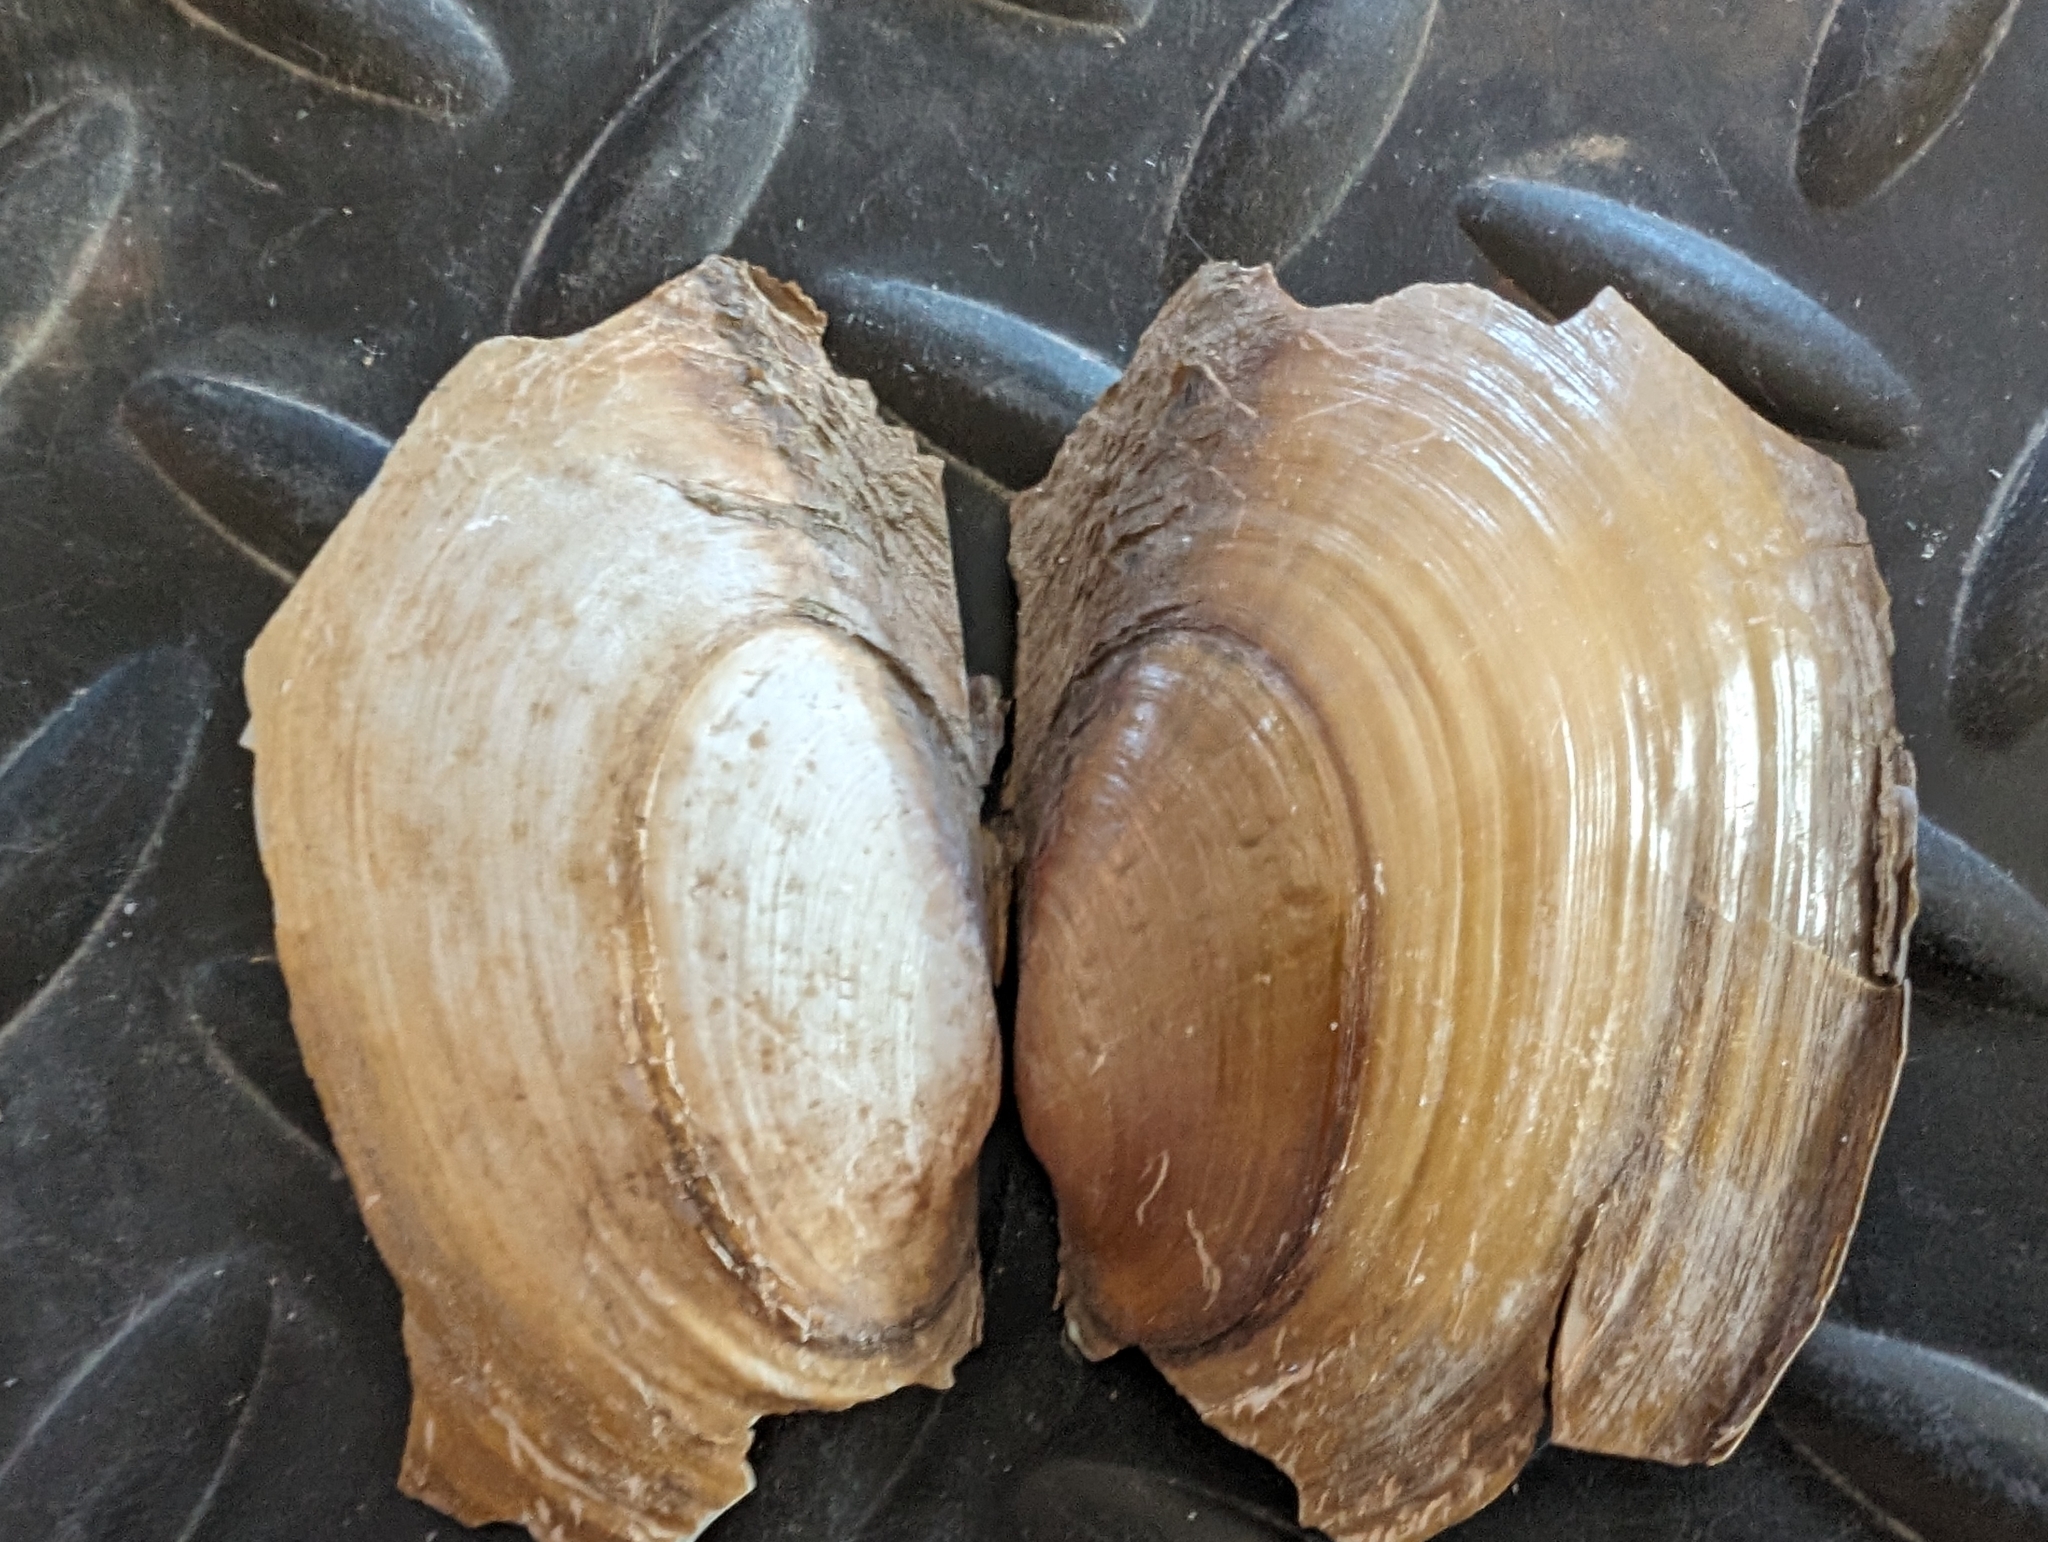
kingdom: Animalia
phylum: Mollusca
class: Bivalvia
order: Unionida
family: Unionidae
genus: Potamilus
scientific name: Potamilus fragilis
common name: Fragile papershell
